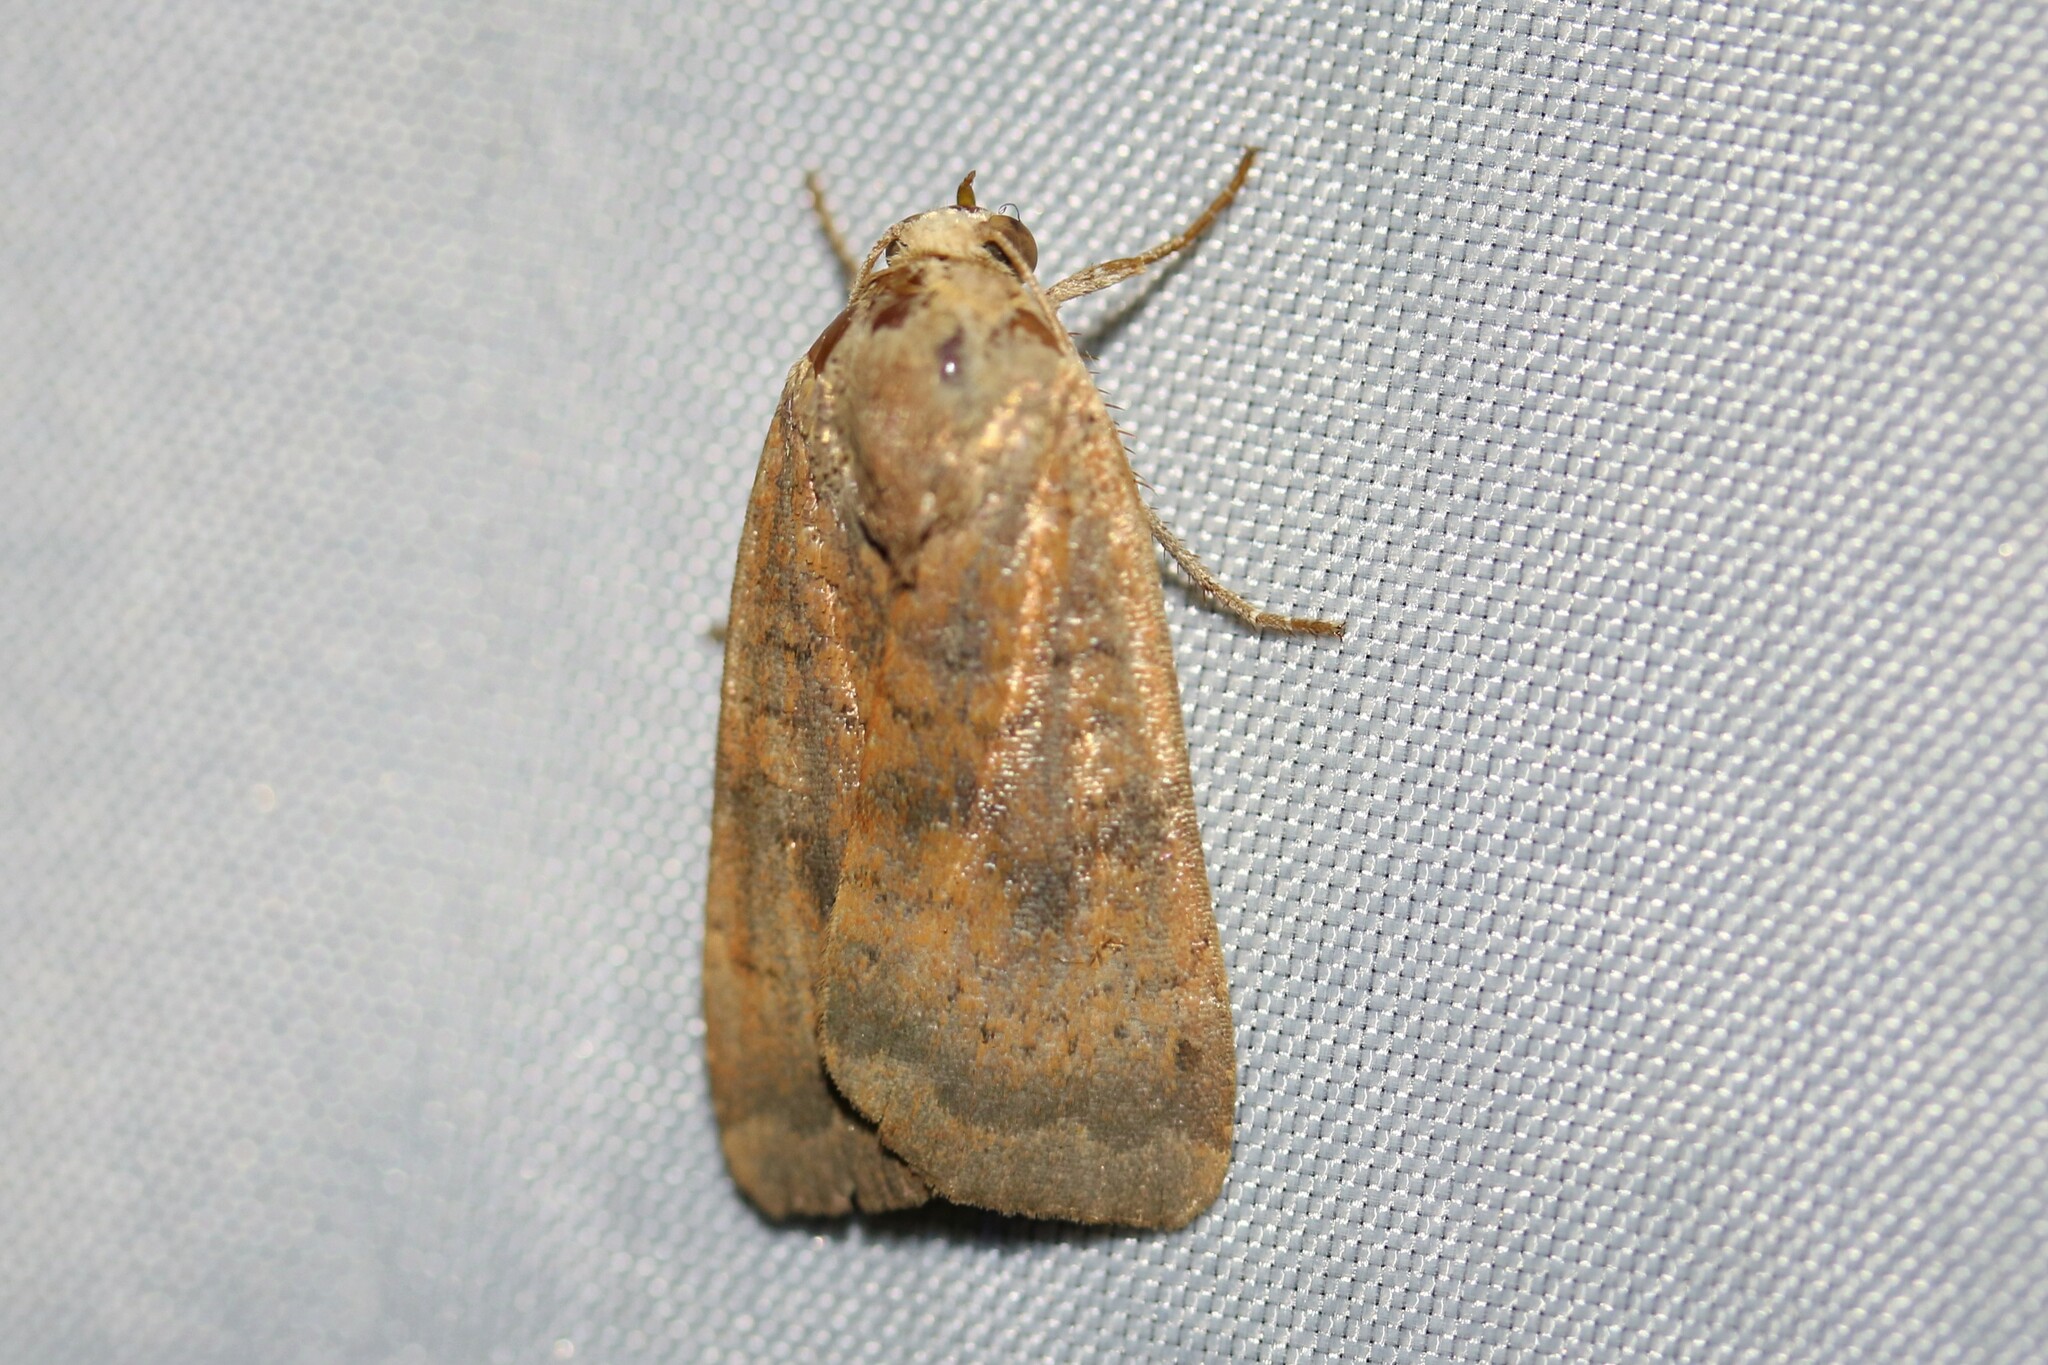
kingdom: Animalia
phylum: Arthropoda
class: Insecta
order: Lepidoptera
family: Noctuidae
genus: Noctua
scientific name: Noctua interjecta
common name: Least yellow underwing
